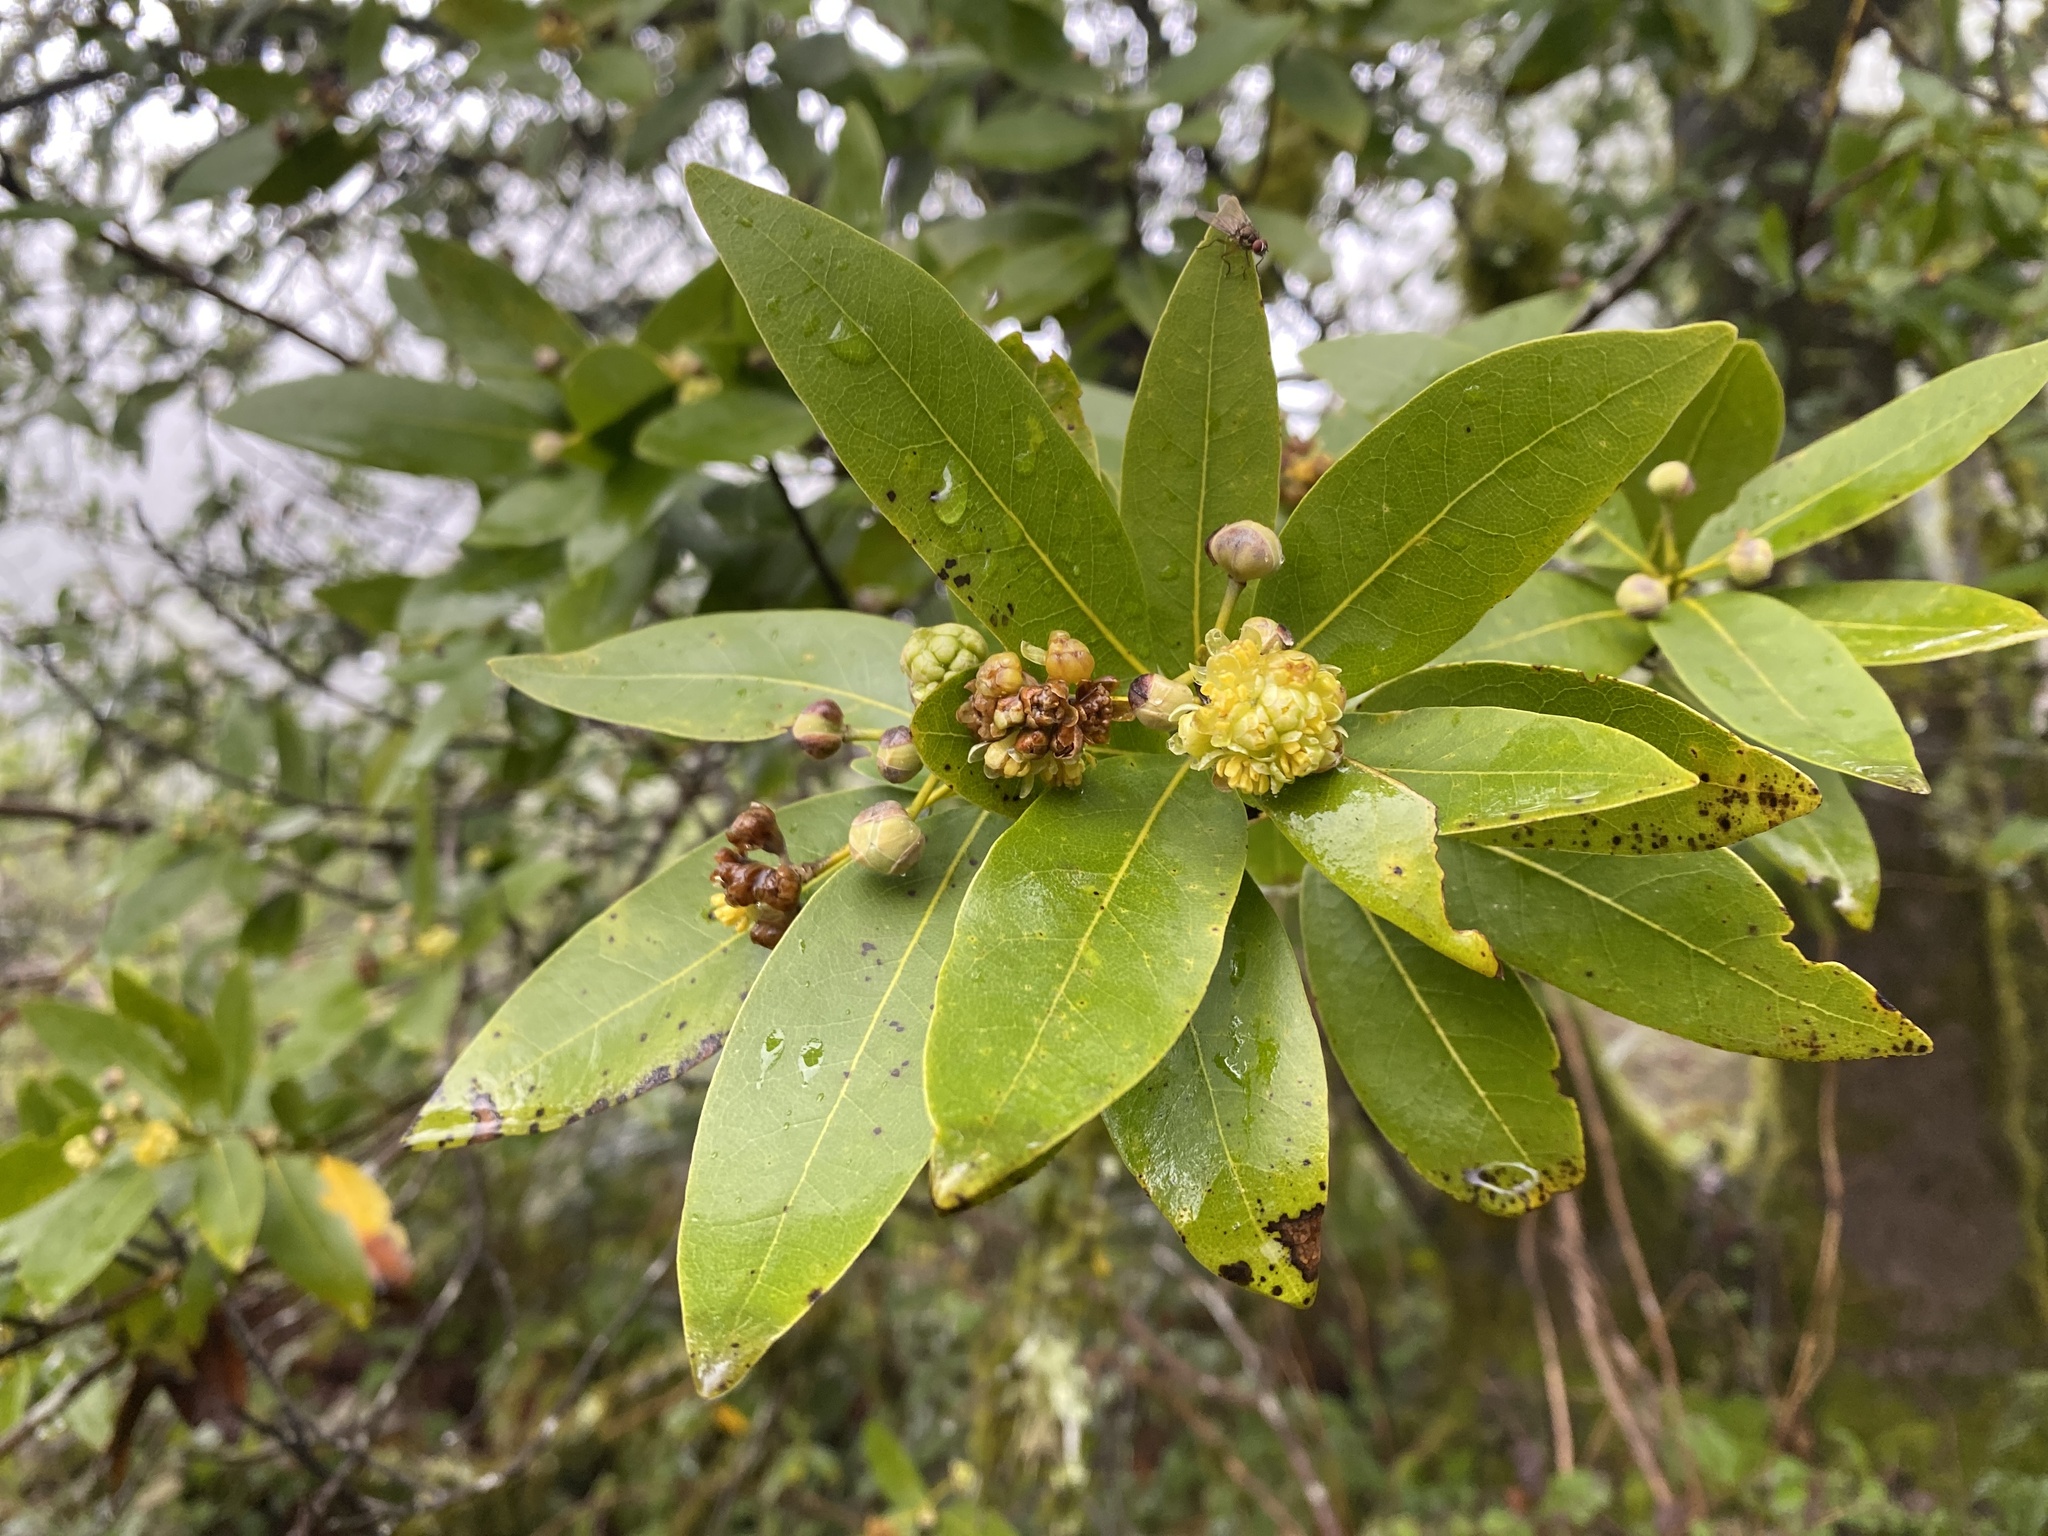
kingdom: Plantae
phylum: Tracheophyta
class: Magnoliopsida
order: Laurales
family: Lauraceae
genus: Umbellularia
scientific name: Umbellularia californica
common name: California bay
